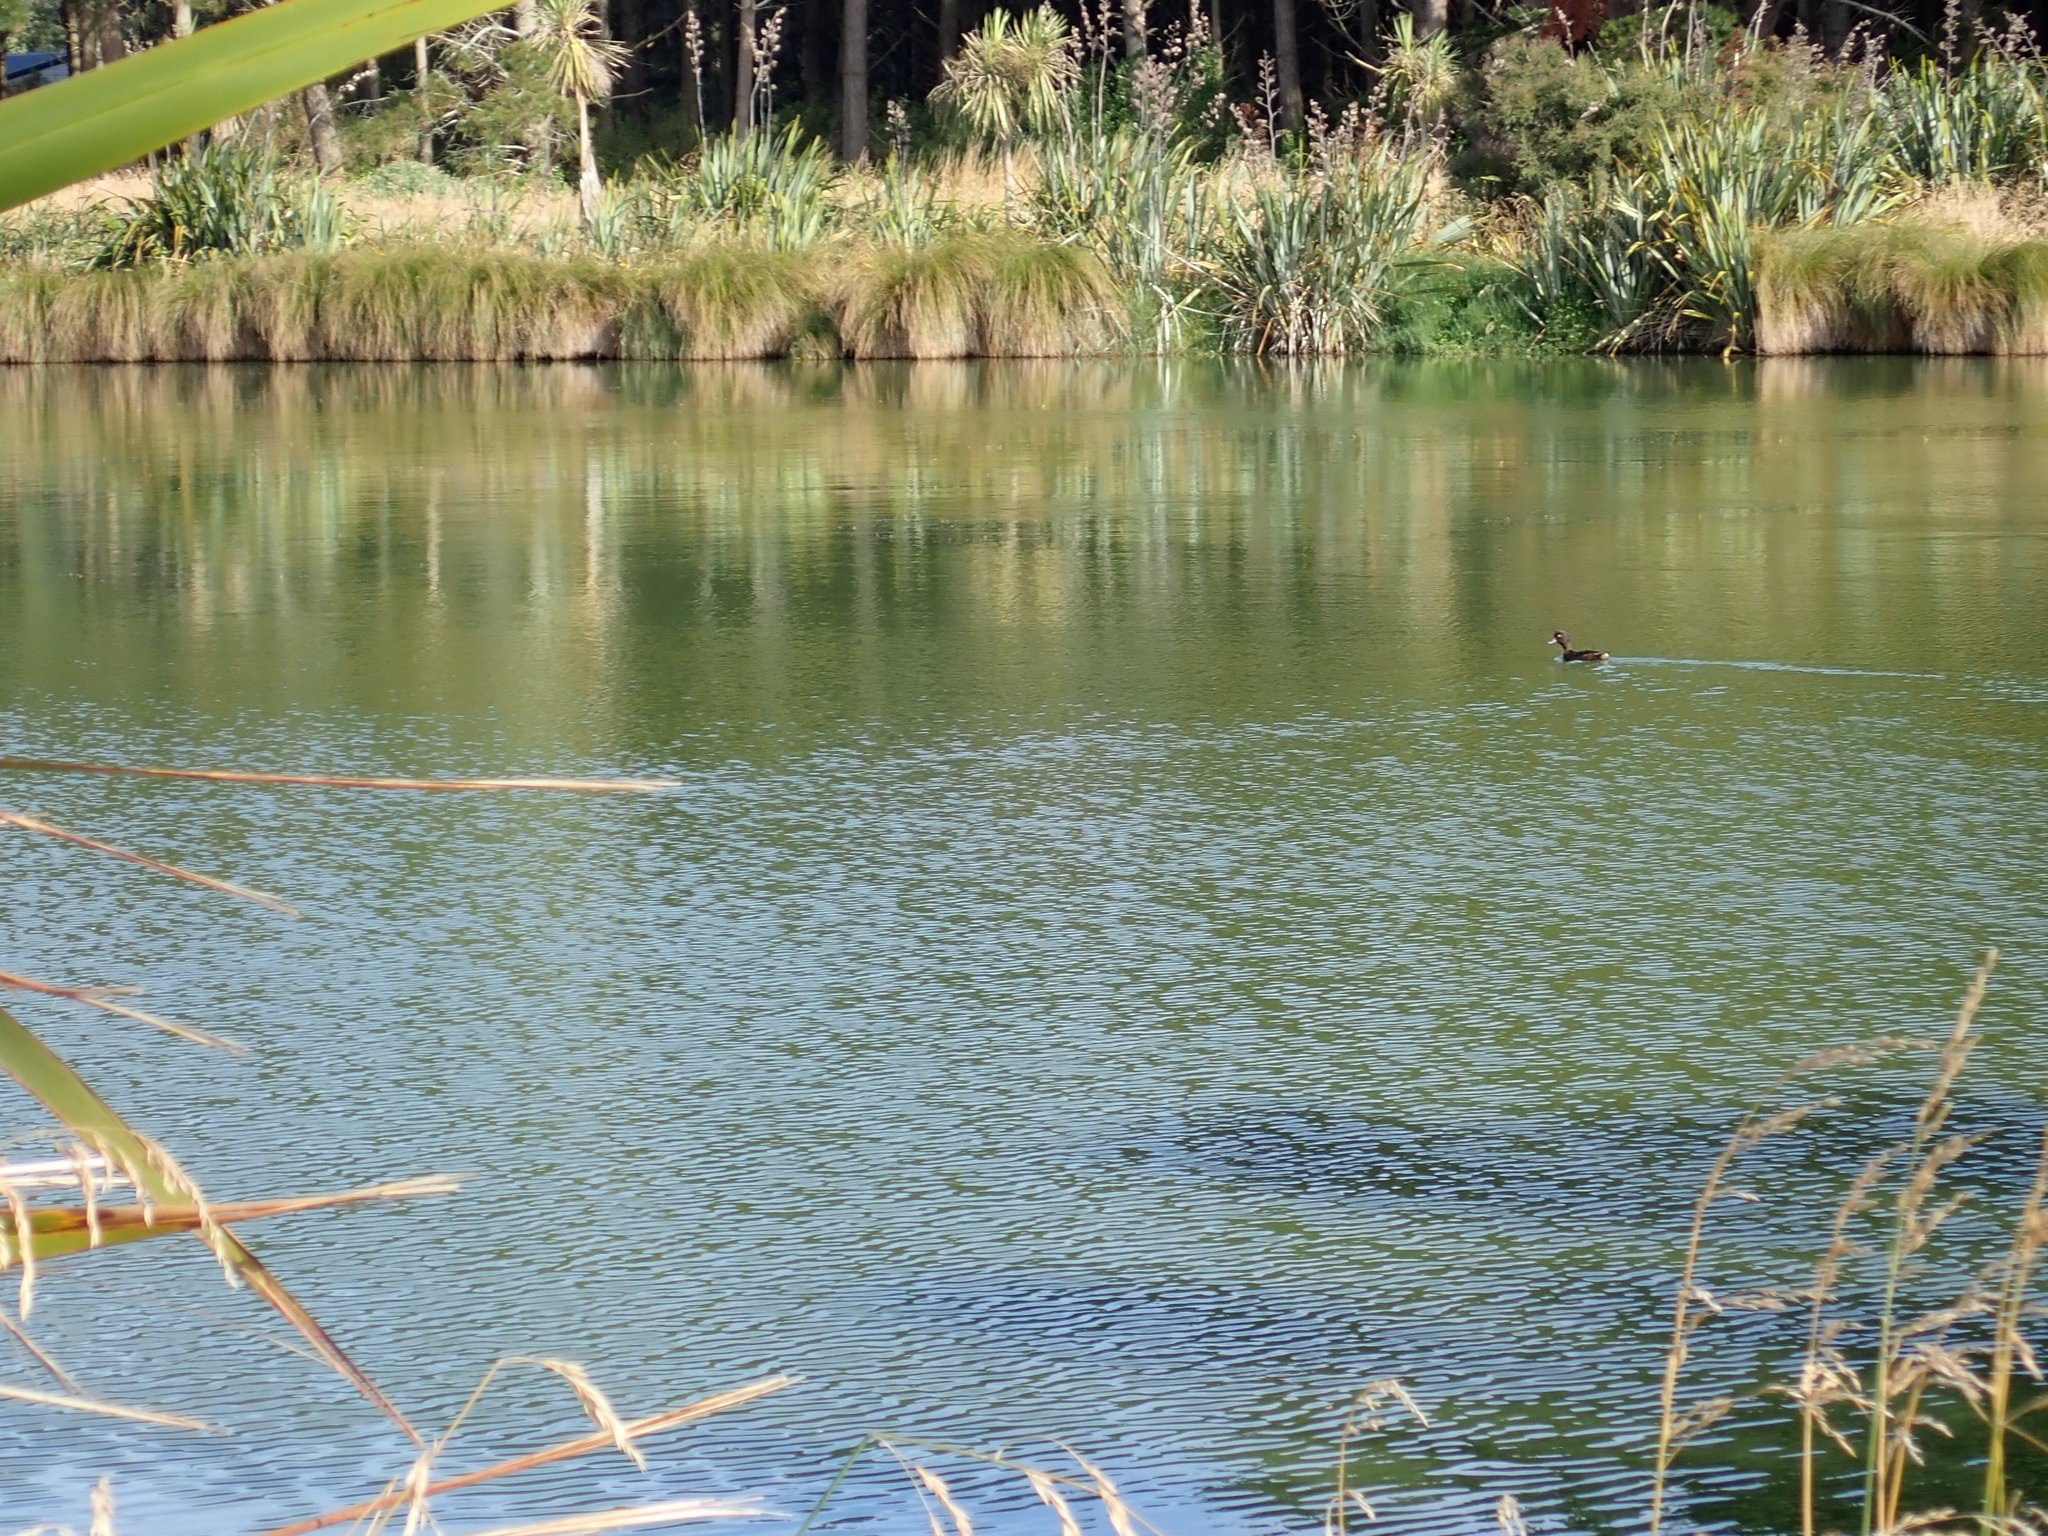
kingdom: Animalia
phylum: Chordata
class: Aves
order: Anseriformes
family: Anatidae
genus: Aythya
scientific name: Aythya novaeseelandiae
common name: New zealand scaup
